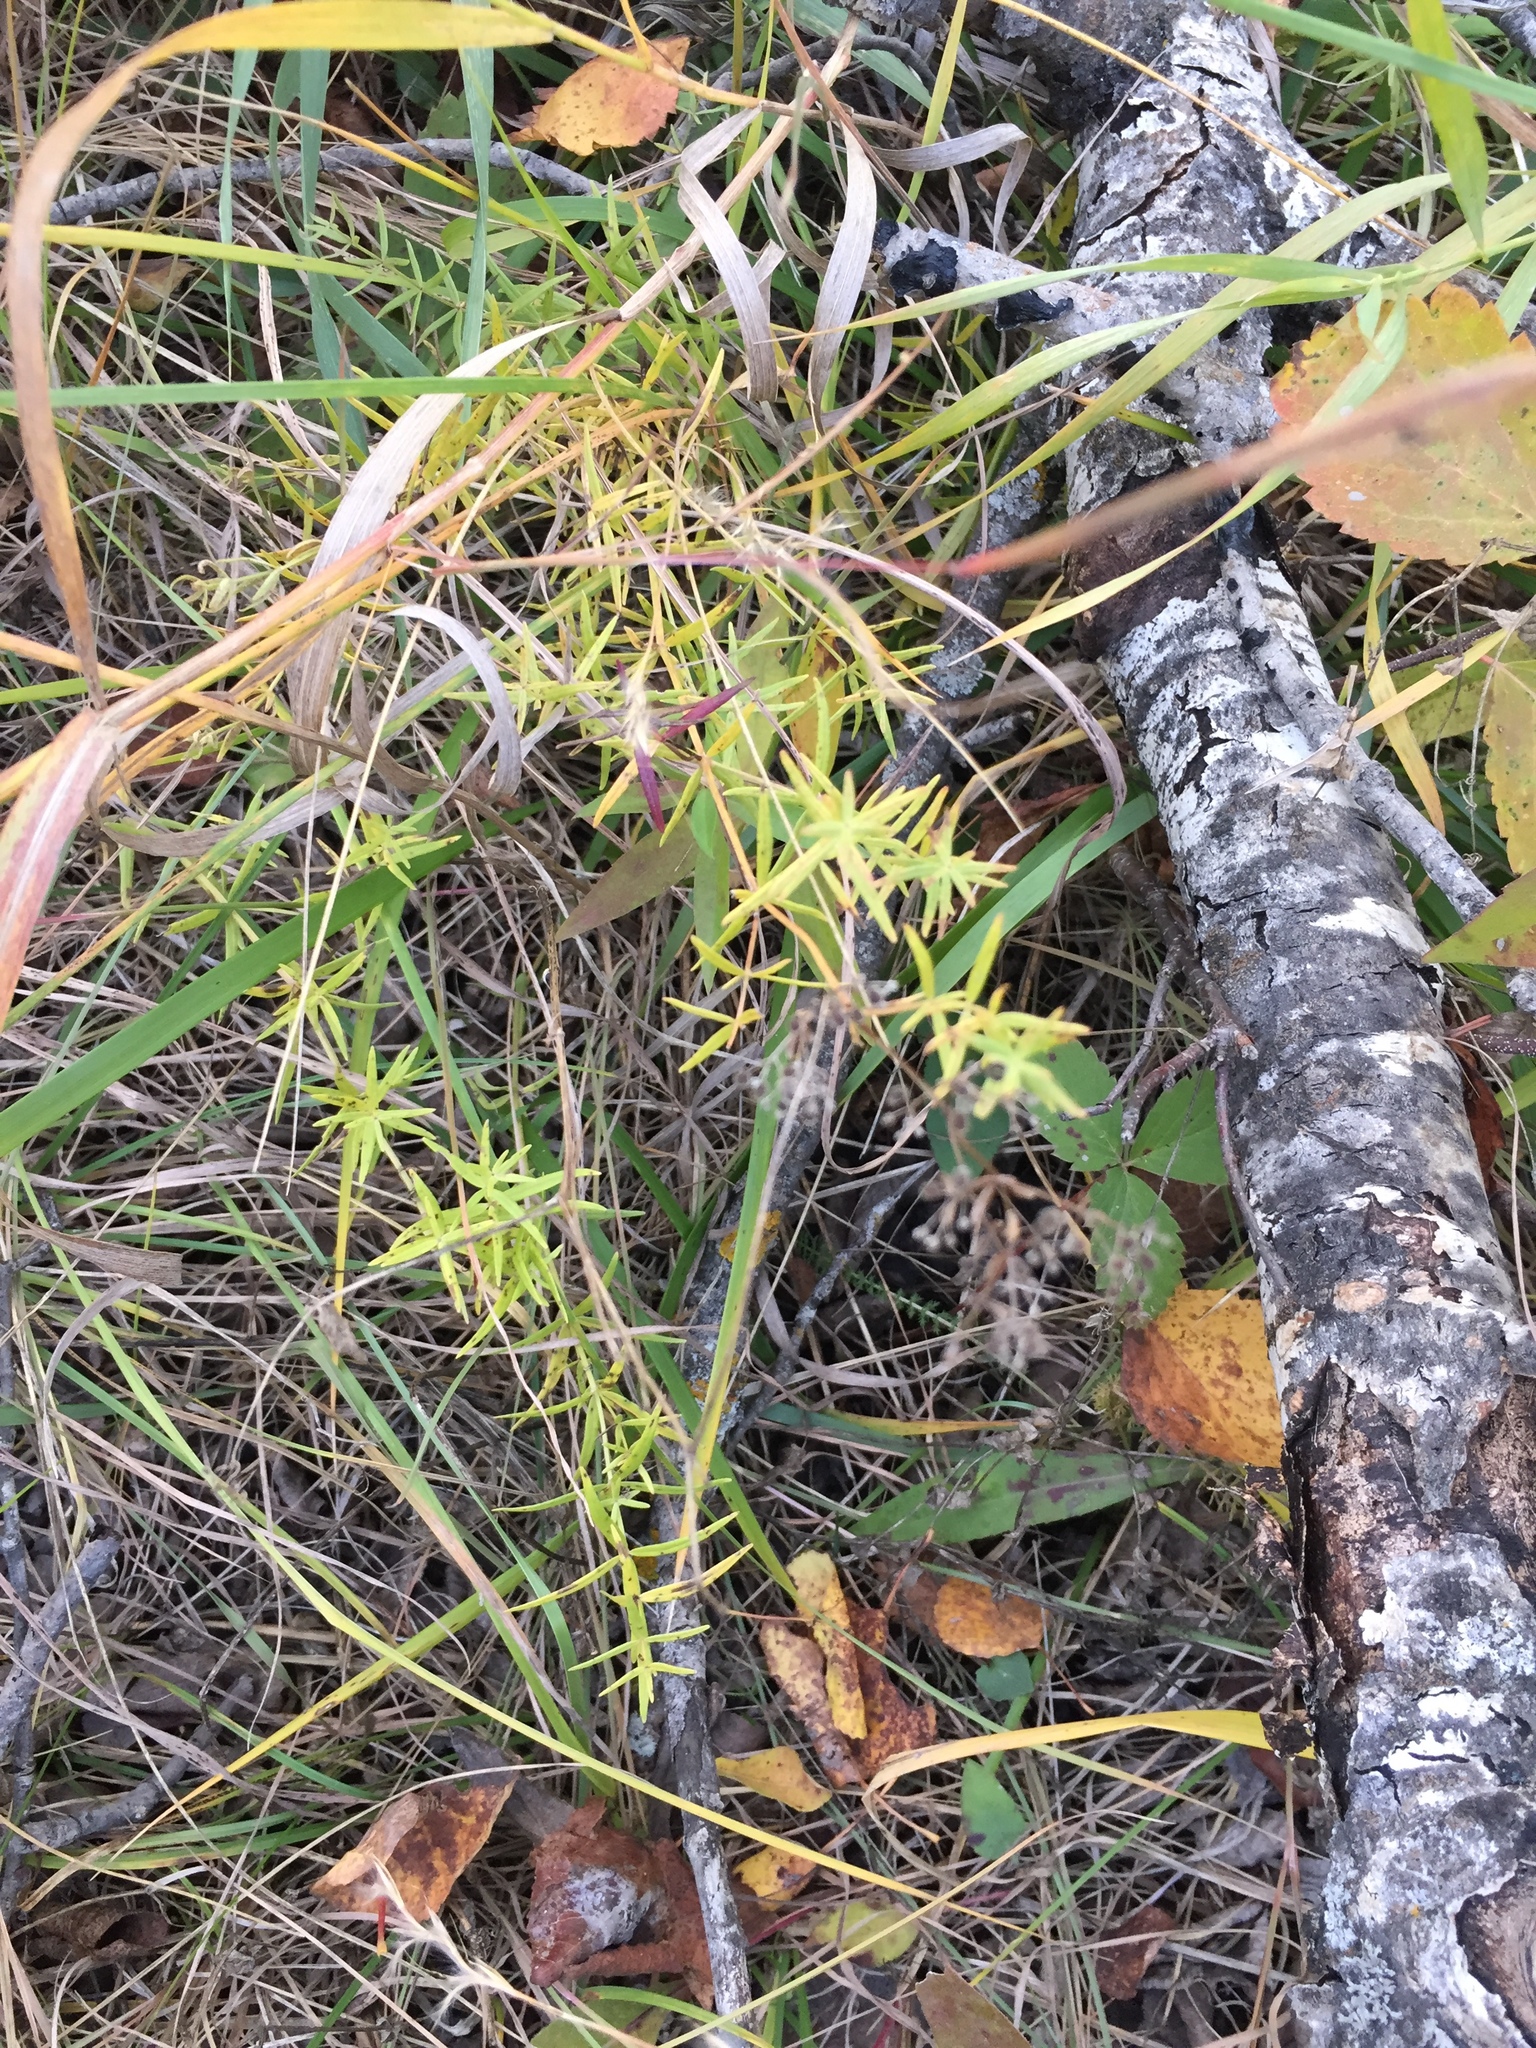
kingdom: Plantae
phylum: Tracheophyta
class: Magnoliopsida
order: Gentianales
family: Rubiaceae
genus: Galium
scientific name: Galium boreale
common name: Northern bedstraw
